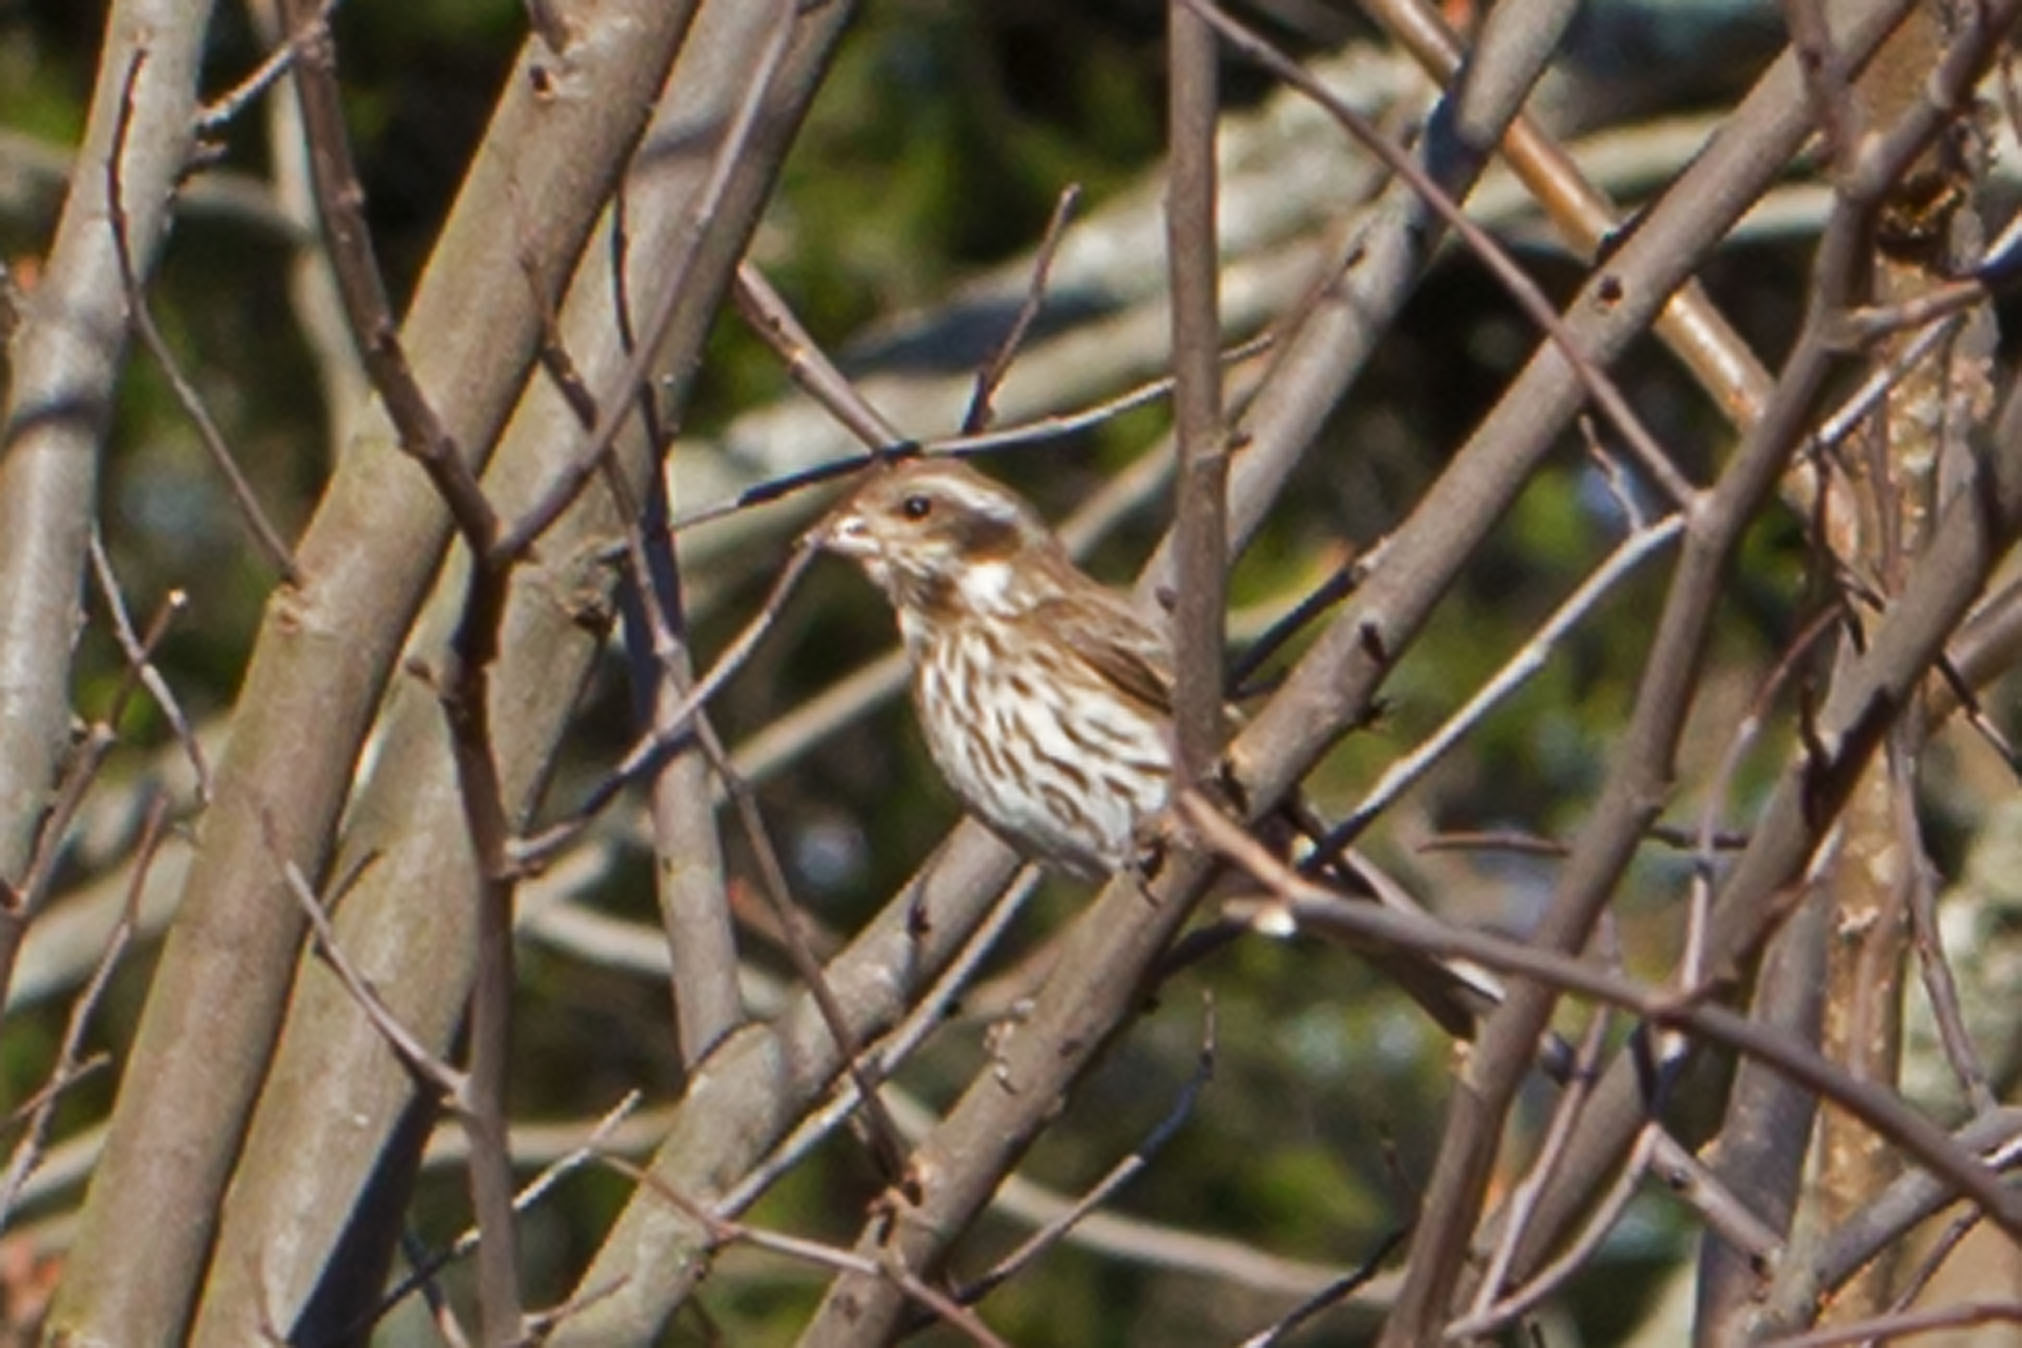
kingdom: Animalia
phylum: Chordata
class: Aves
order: Passeriformes
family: Fringillidae
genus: Haemorhous
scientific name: Haemorhous purpureus
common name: Purple finch
